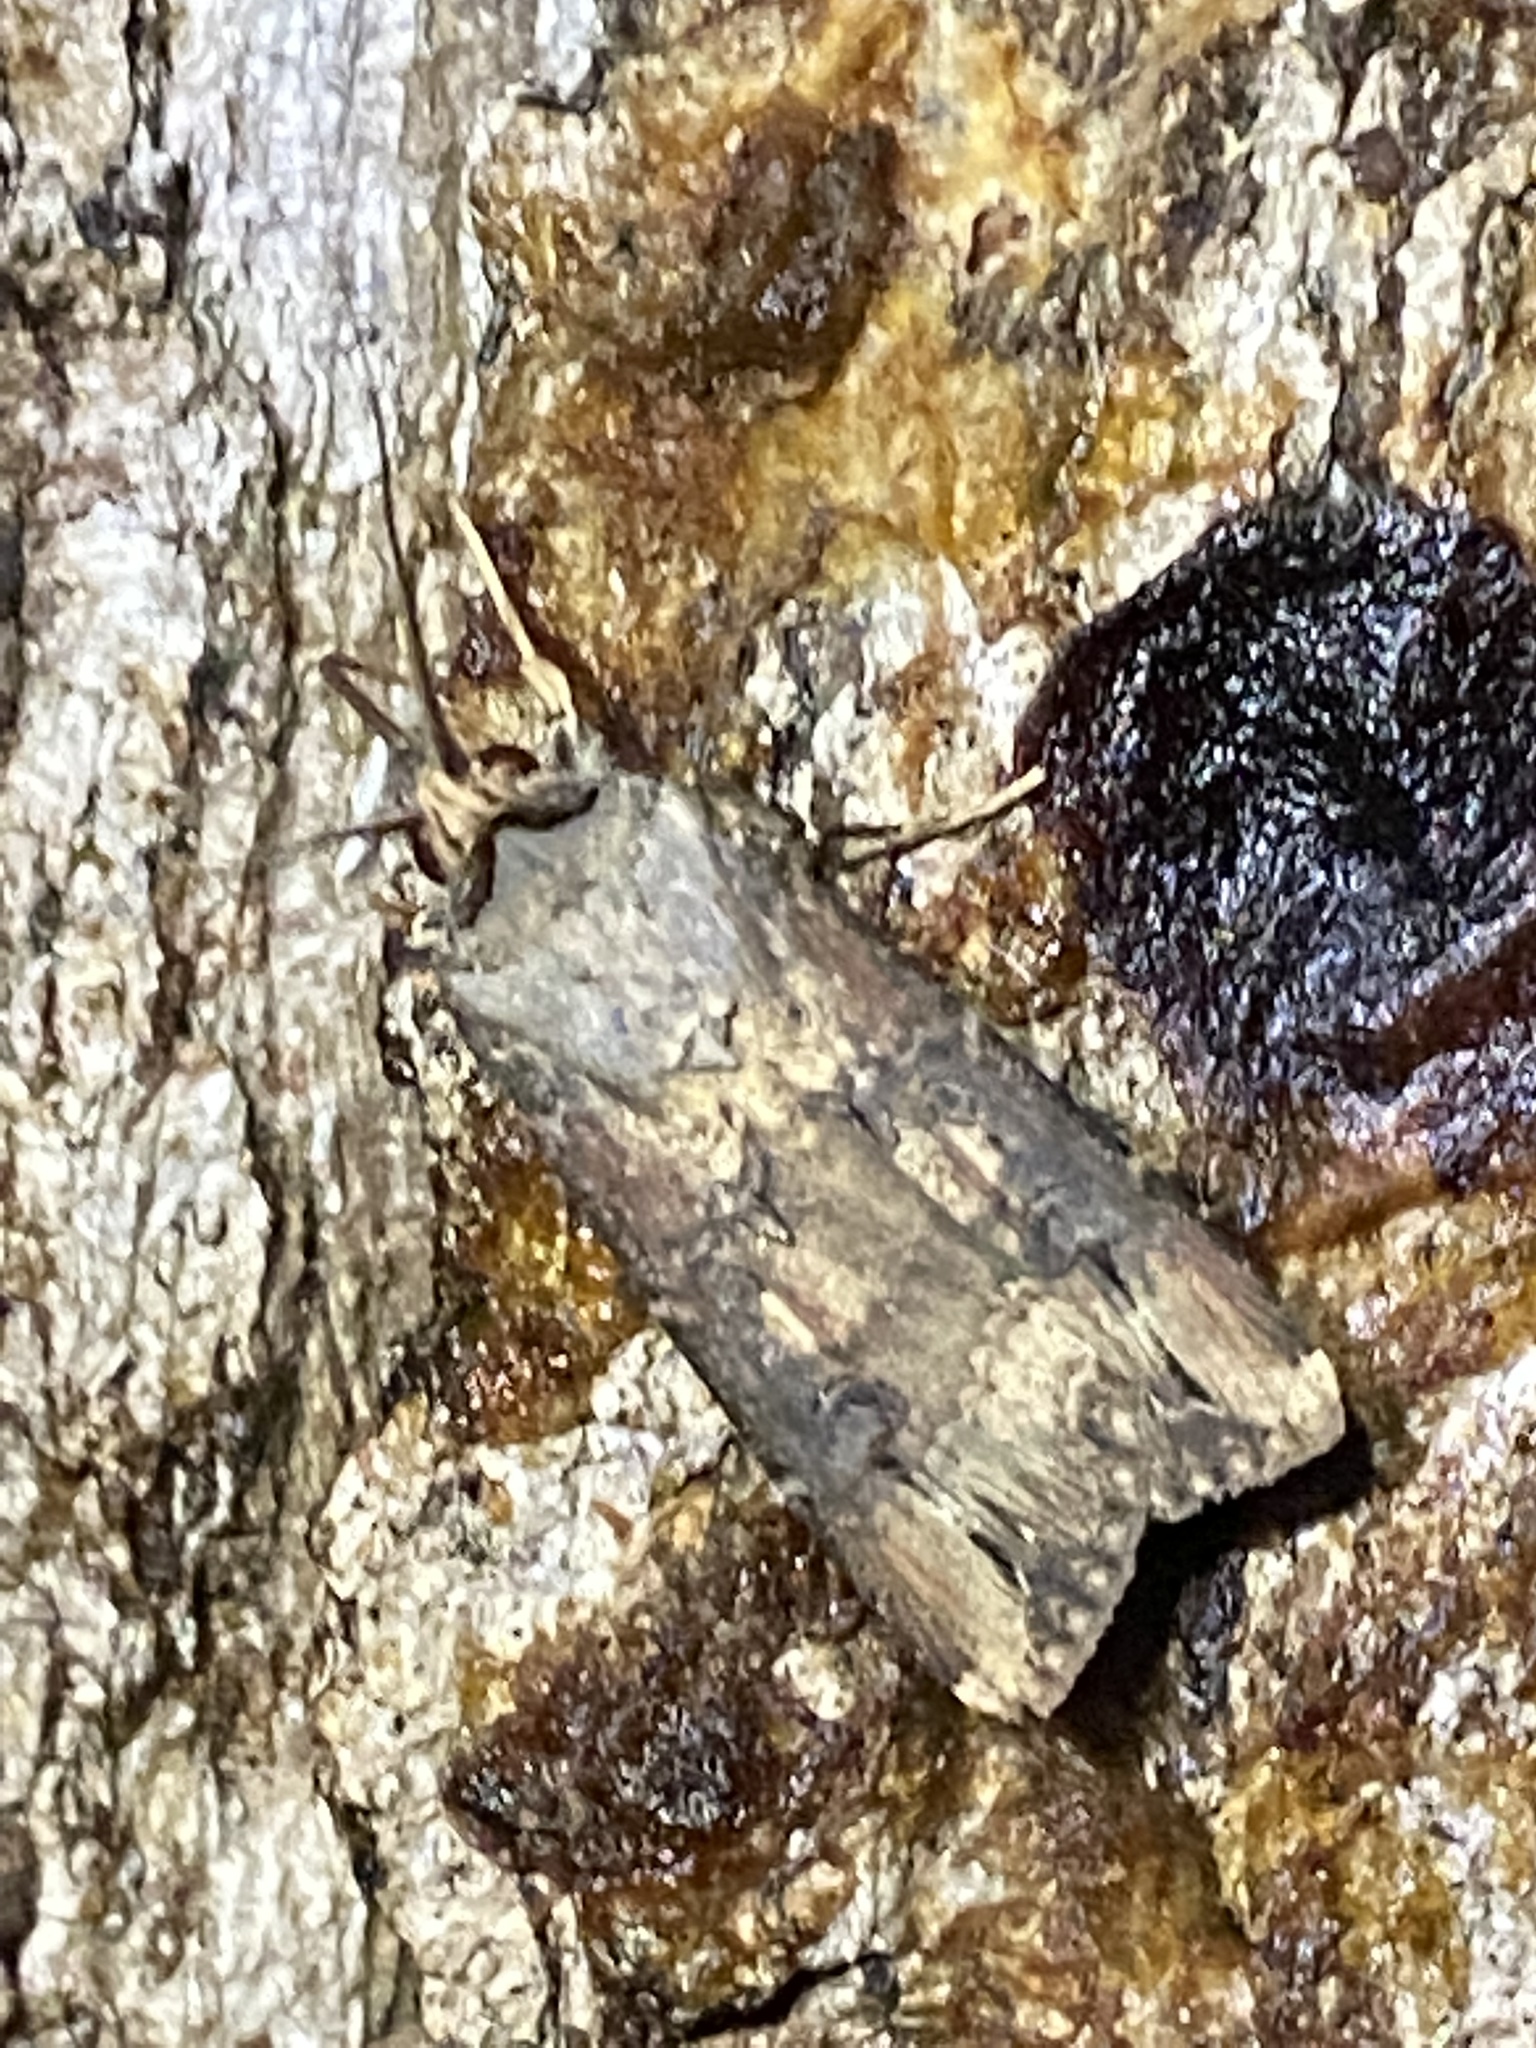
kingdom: Animalia
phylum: Arthropoda
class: Insecta
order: Lepidoptera
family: Noctuidae
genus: Agrotis
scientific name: Agrotis ipsilon
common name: Dark sword-grass
